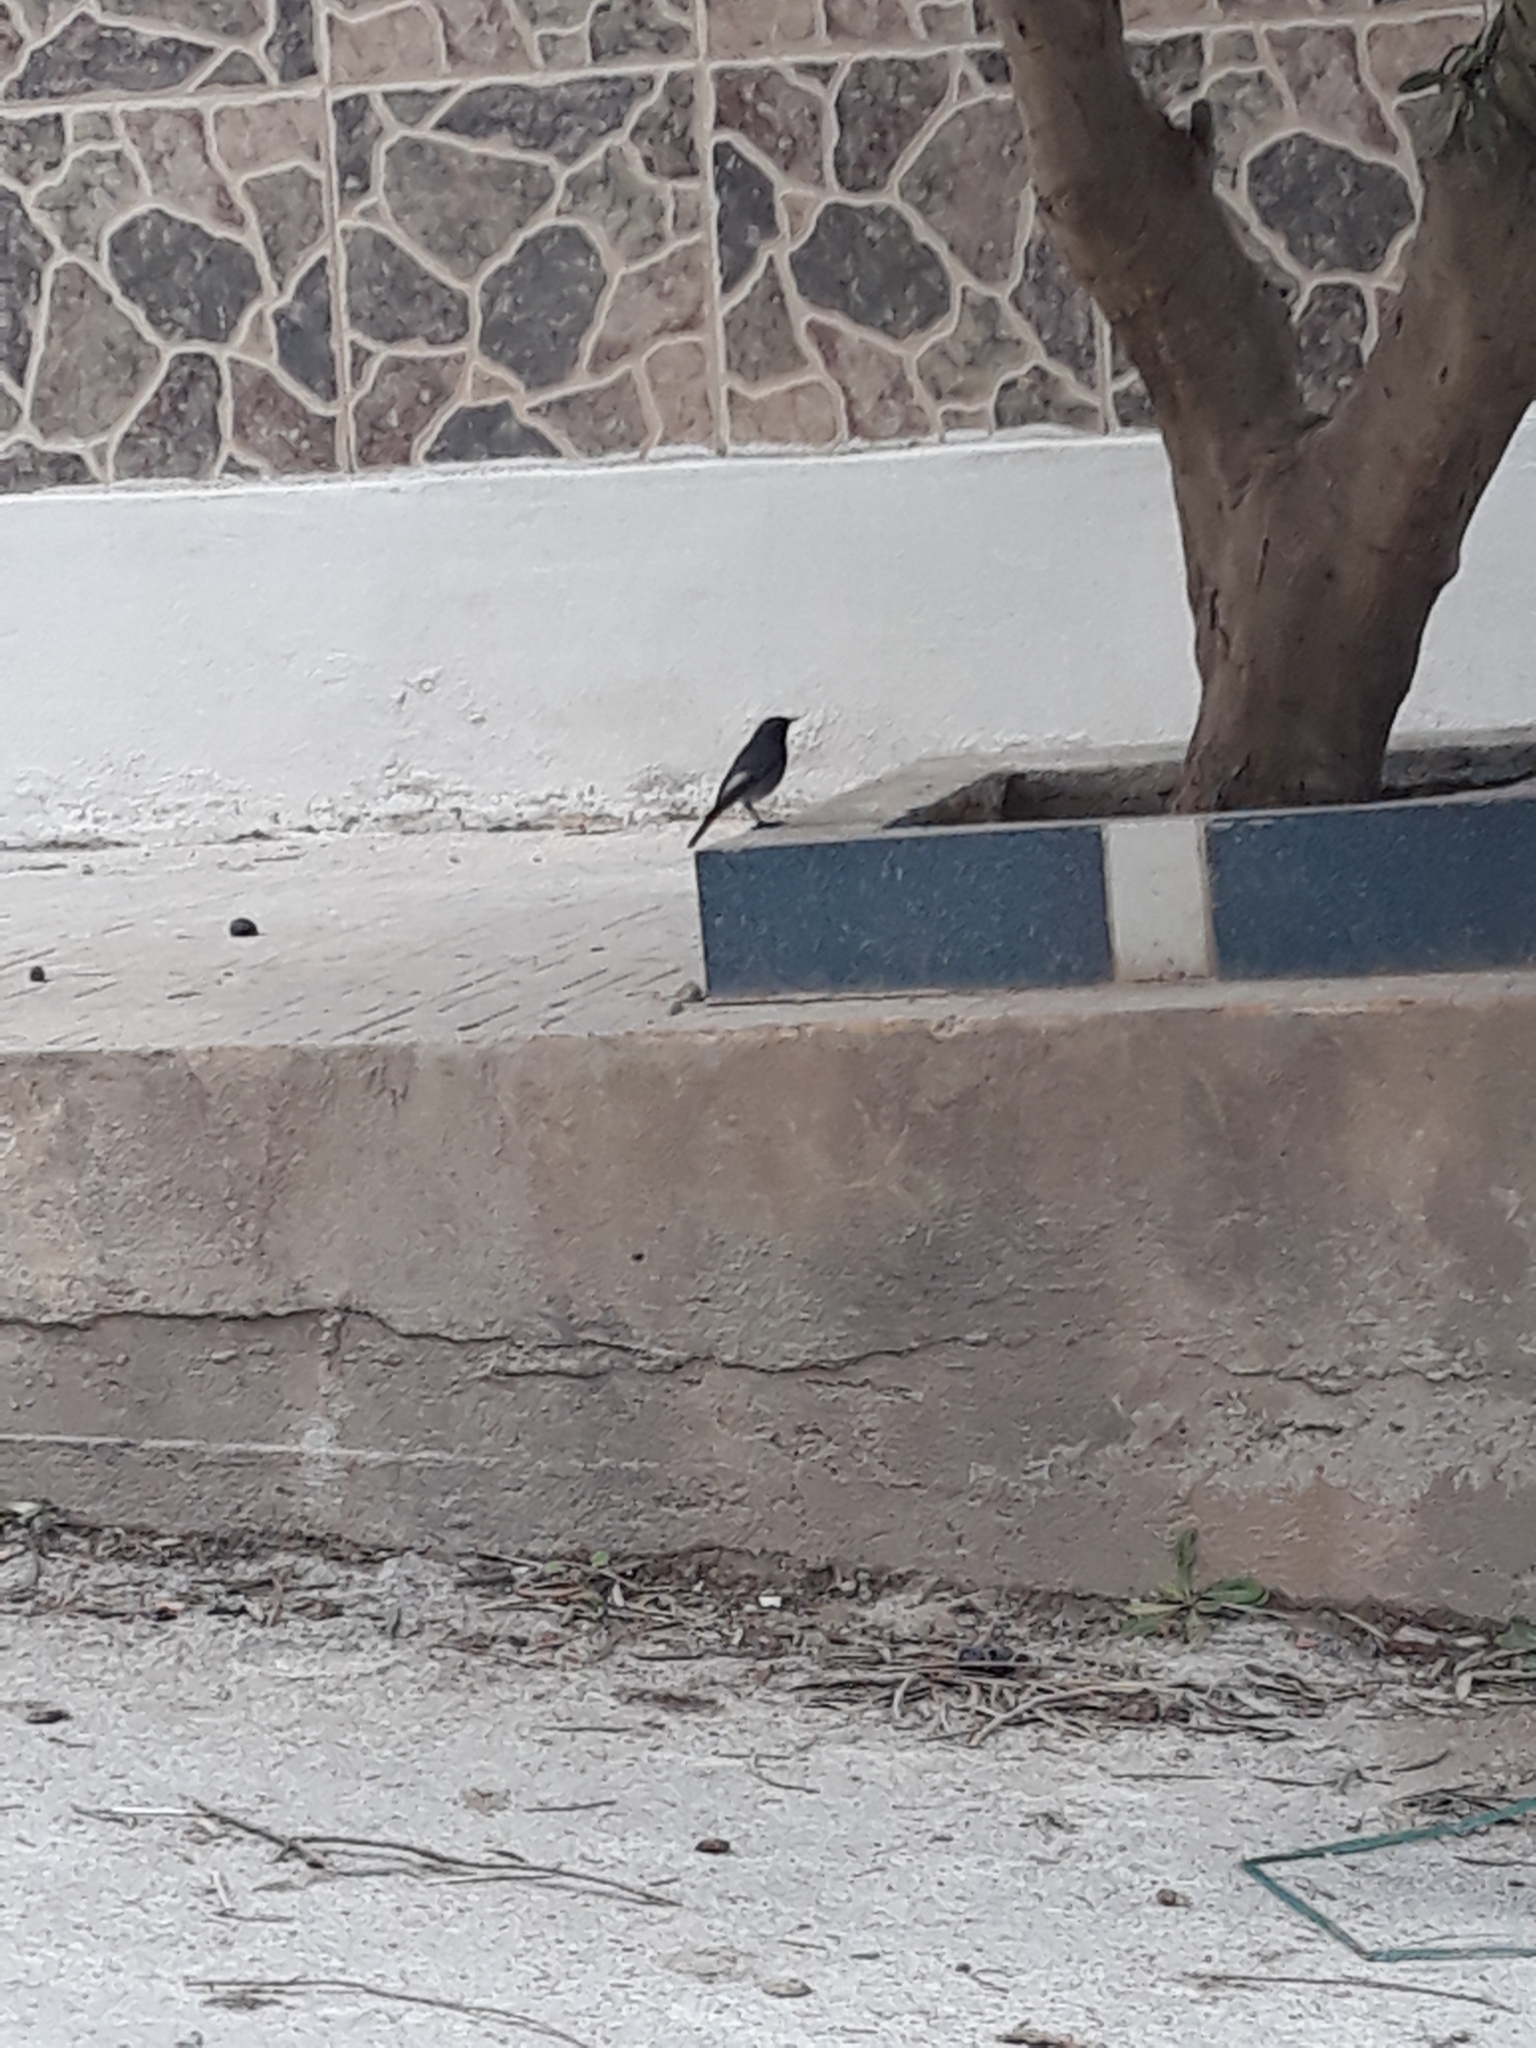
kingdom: Animalia
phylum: Chordata
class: Aves
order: Passeriformes
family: Muscicapidae
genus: Phoenicurus
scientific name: Phoenicurus ochruros
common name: Black redstart
